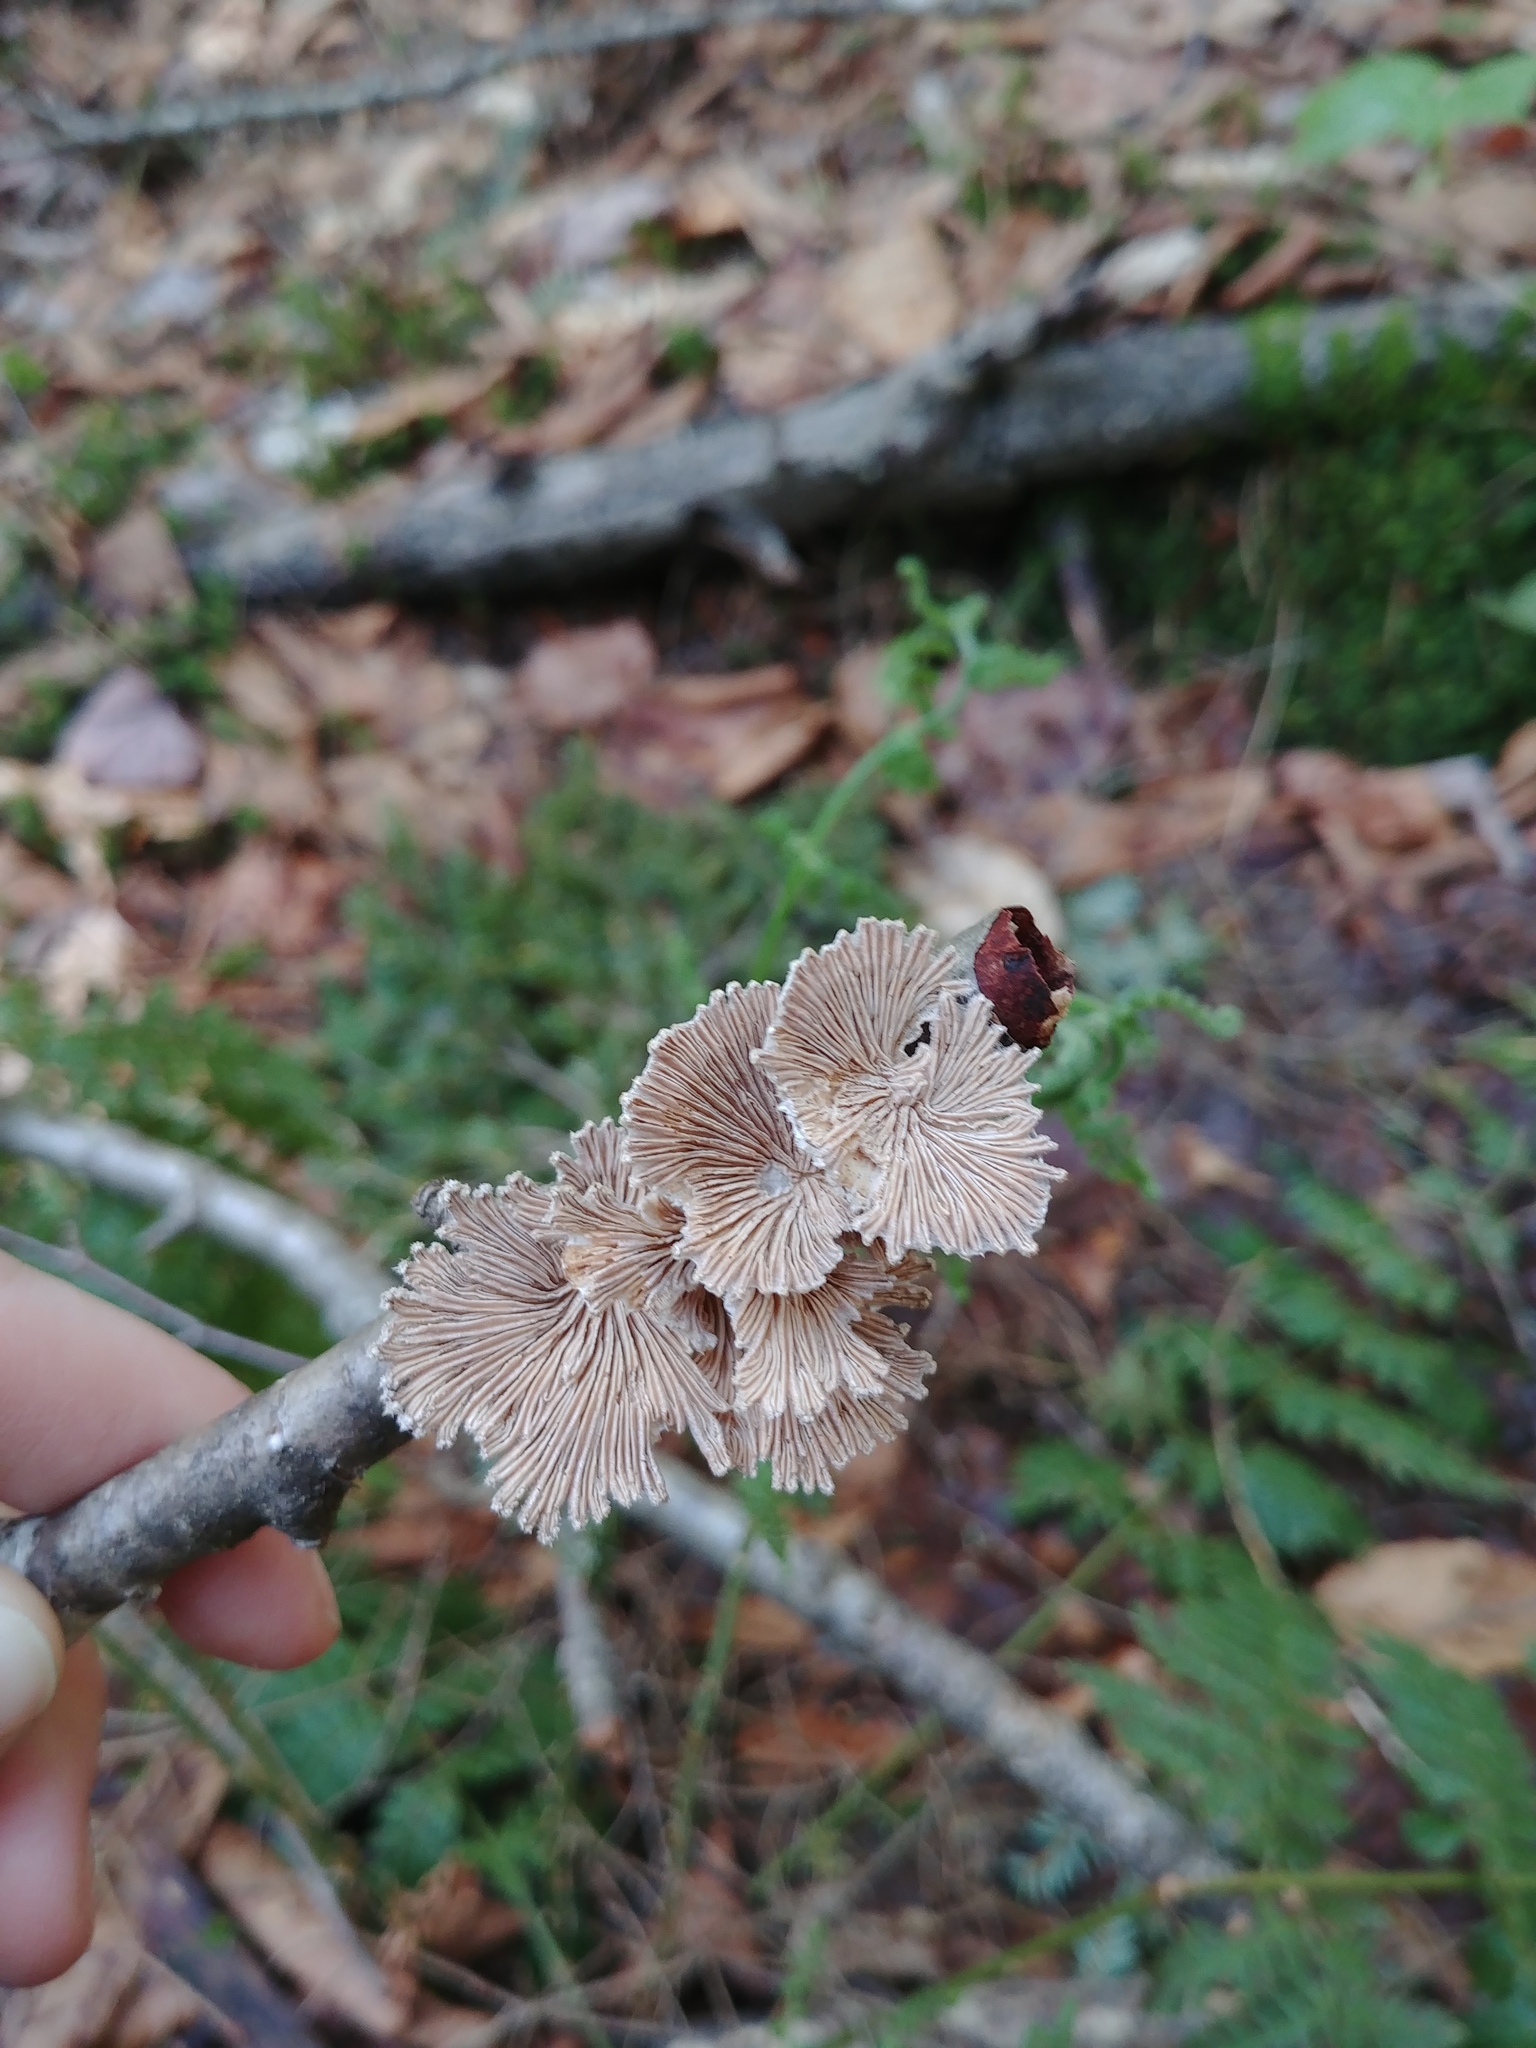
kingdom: Fungi
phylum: Basidiomycota
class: Agaricomycetes
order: Agaricales
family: Schizophyllaceae
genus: Schizophyllum
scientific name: Schizophyllum commune
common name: Common porecrust
